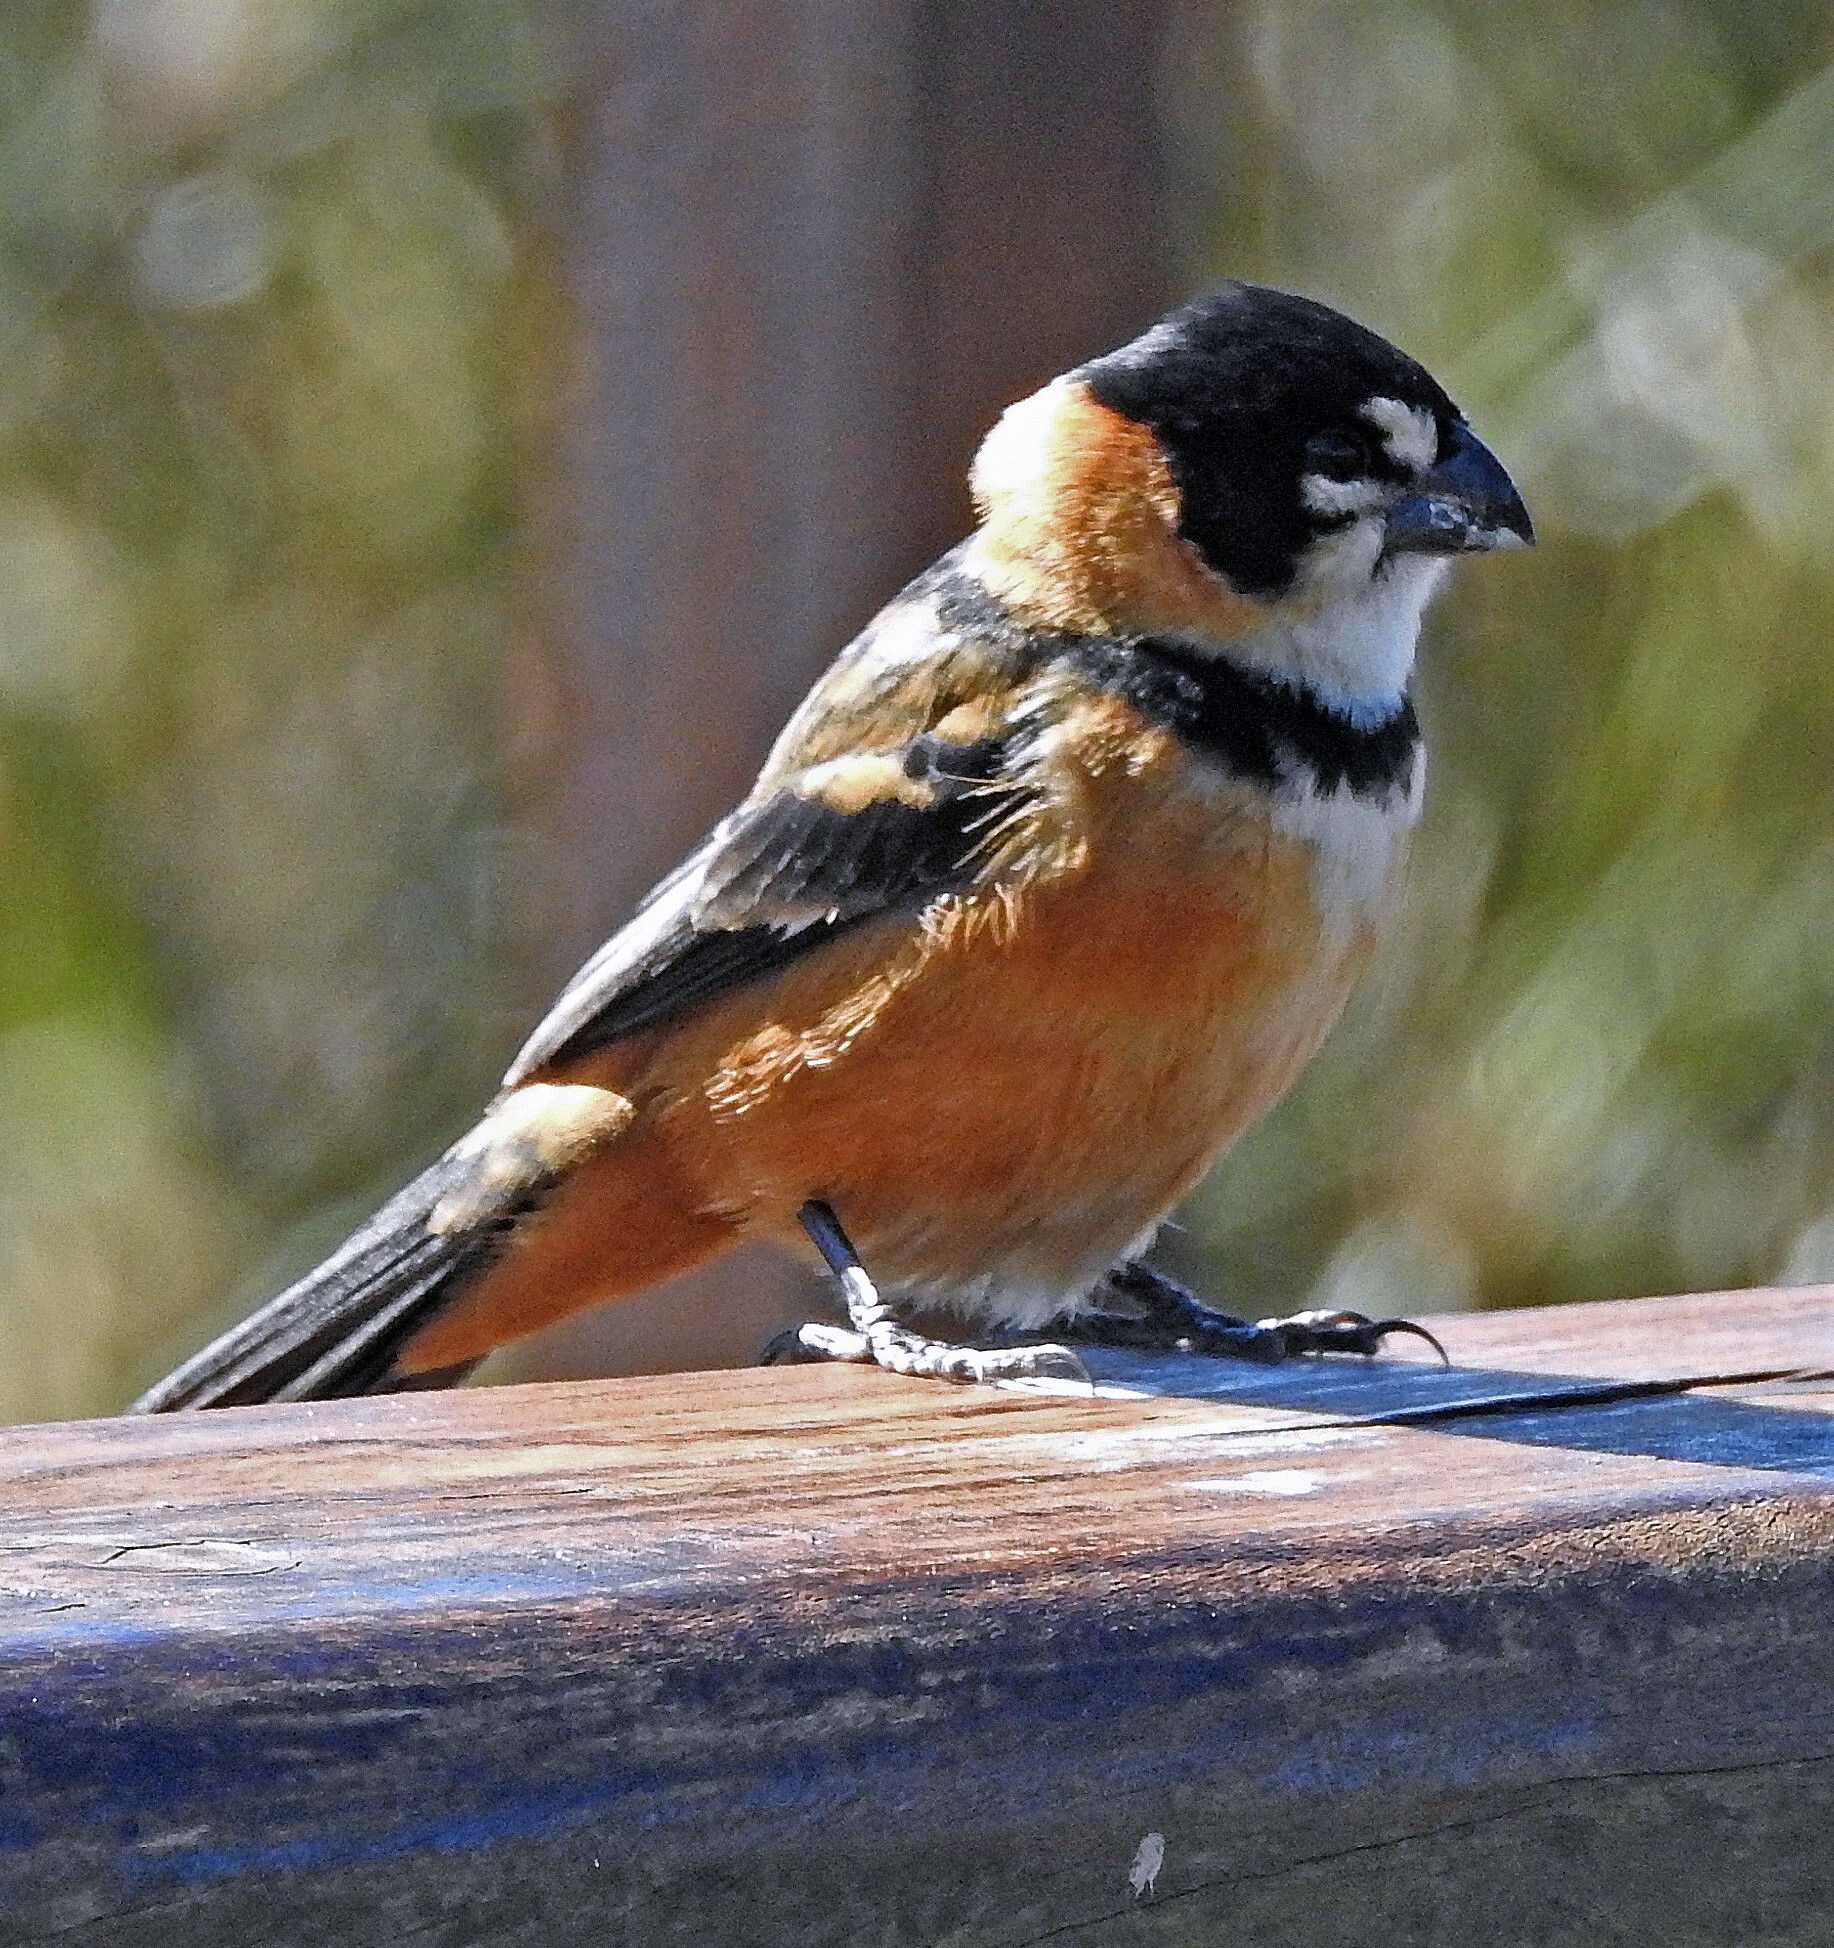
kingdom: Animalia
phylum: Chordata
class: Aves
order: Passeriformes
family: Thraupidae
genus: Sporophila
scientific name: Sporophila collaris
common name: Rusty-collared seedeater
